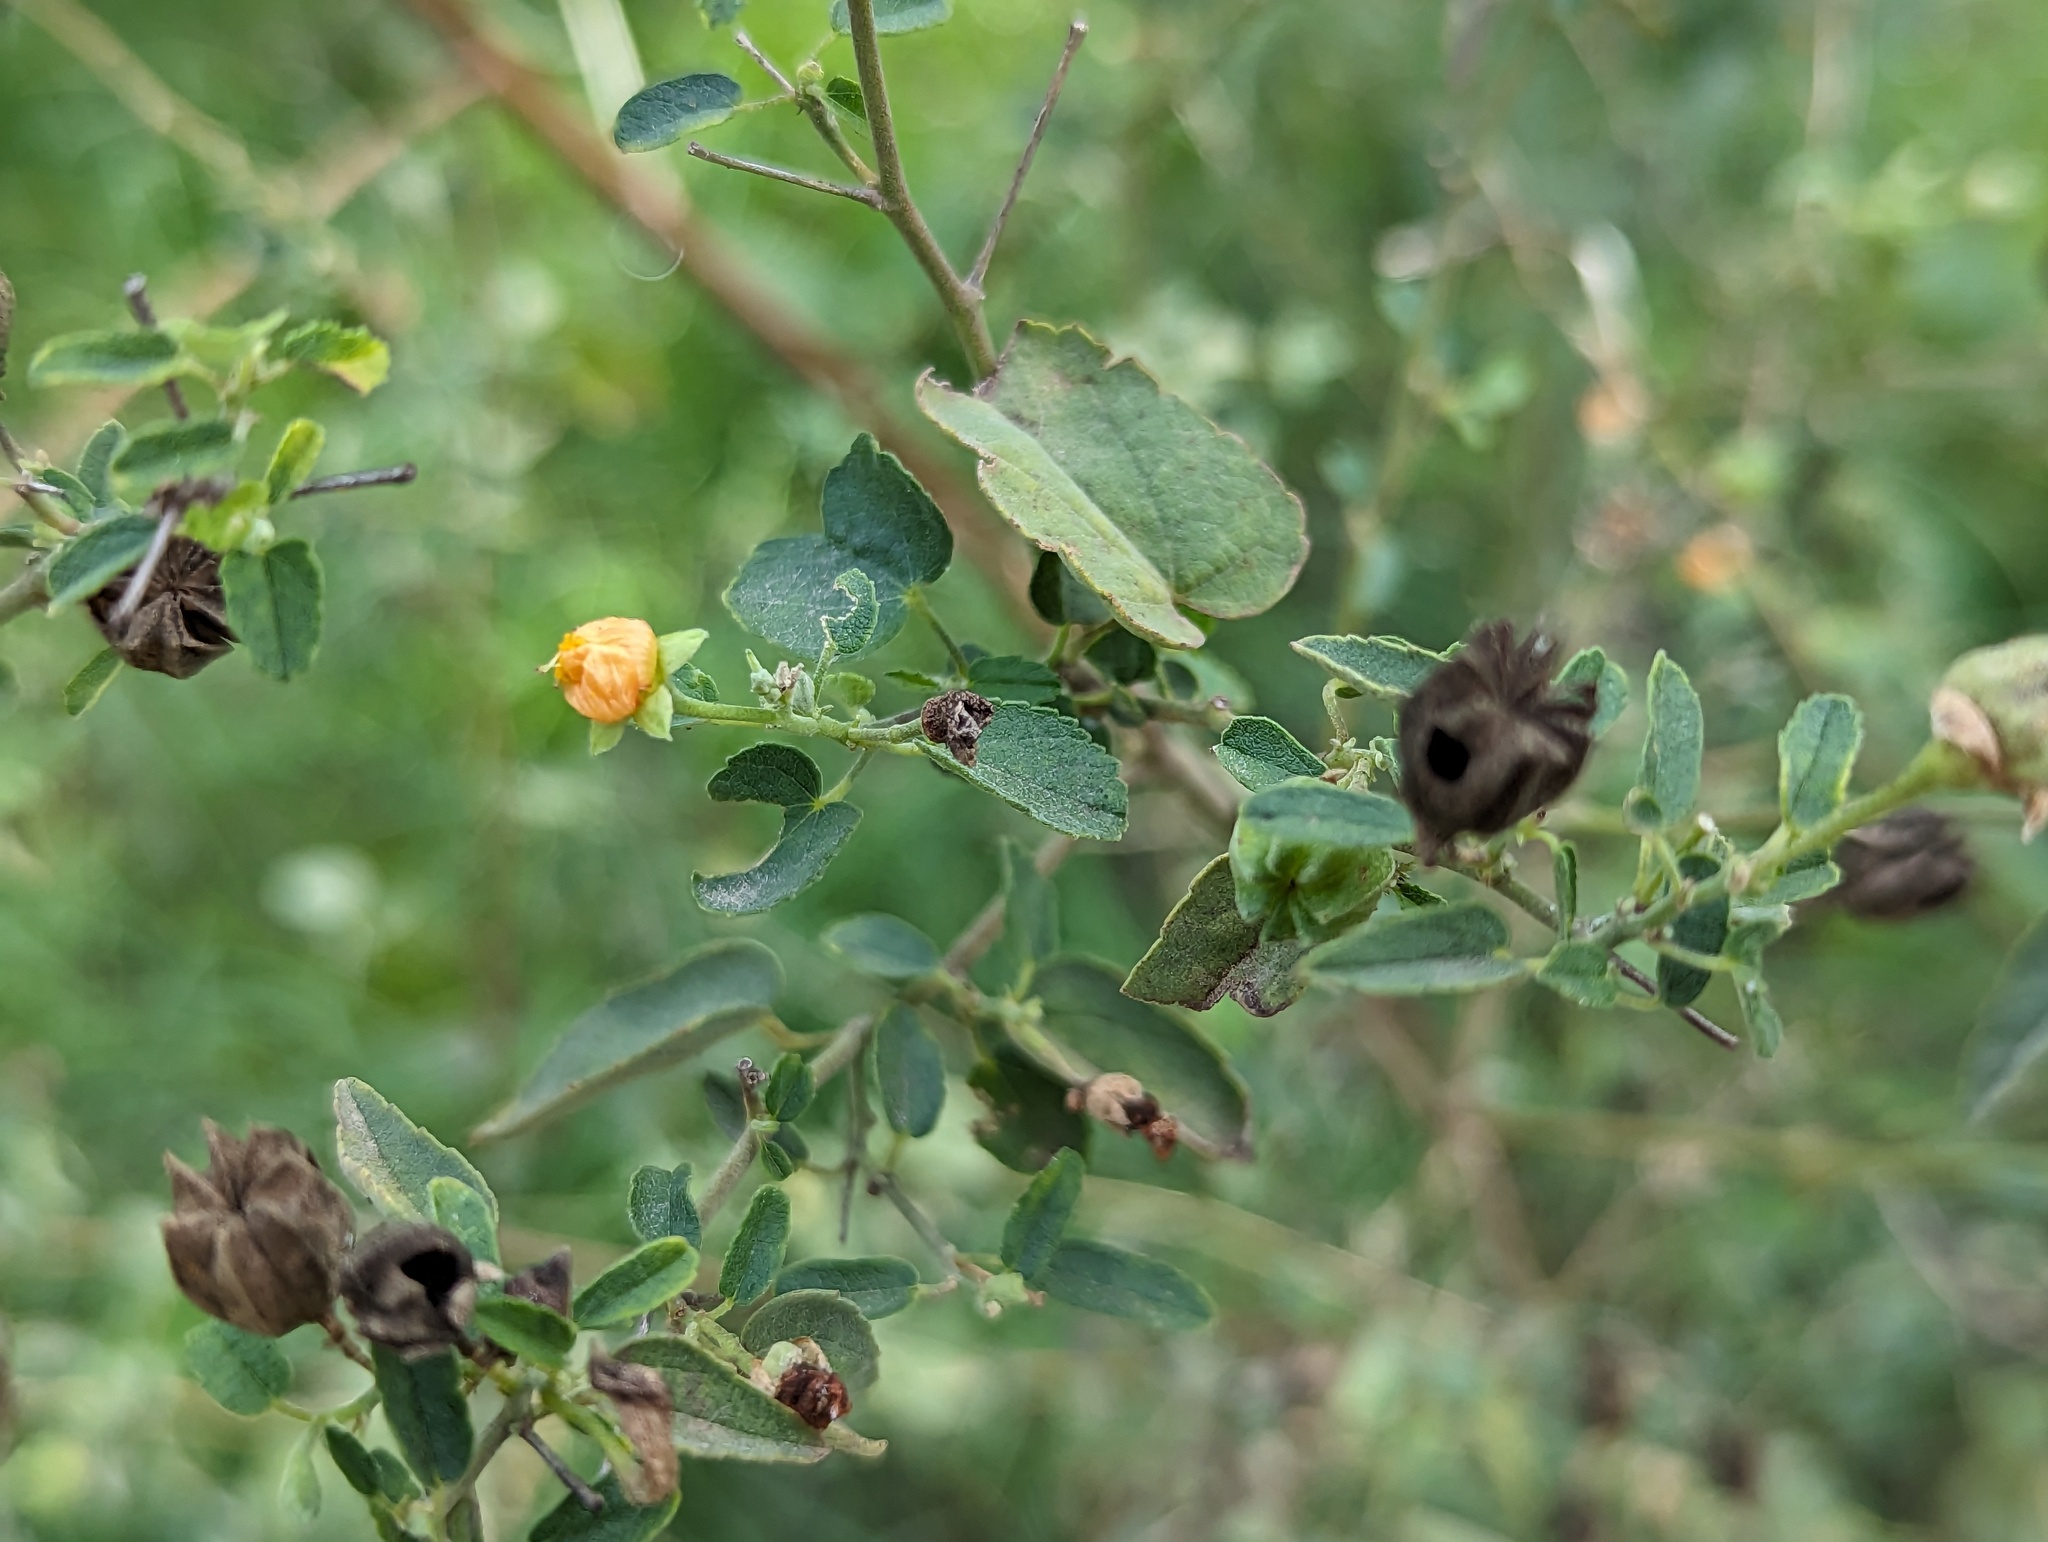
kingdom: Plantae
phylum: Tracheophyta
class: Magnoliopsida
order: Malvales
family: Malvaceae
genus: Abutilon
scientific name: Abutilon fruticosum
